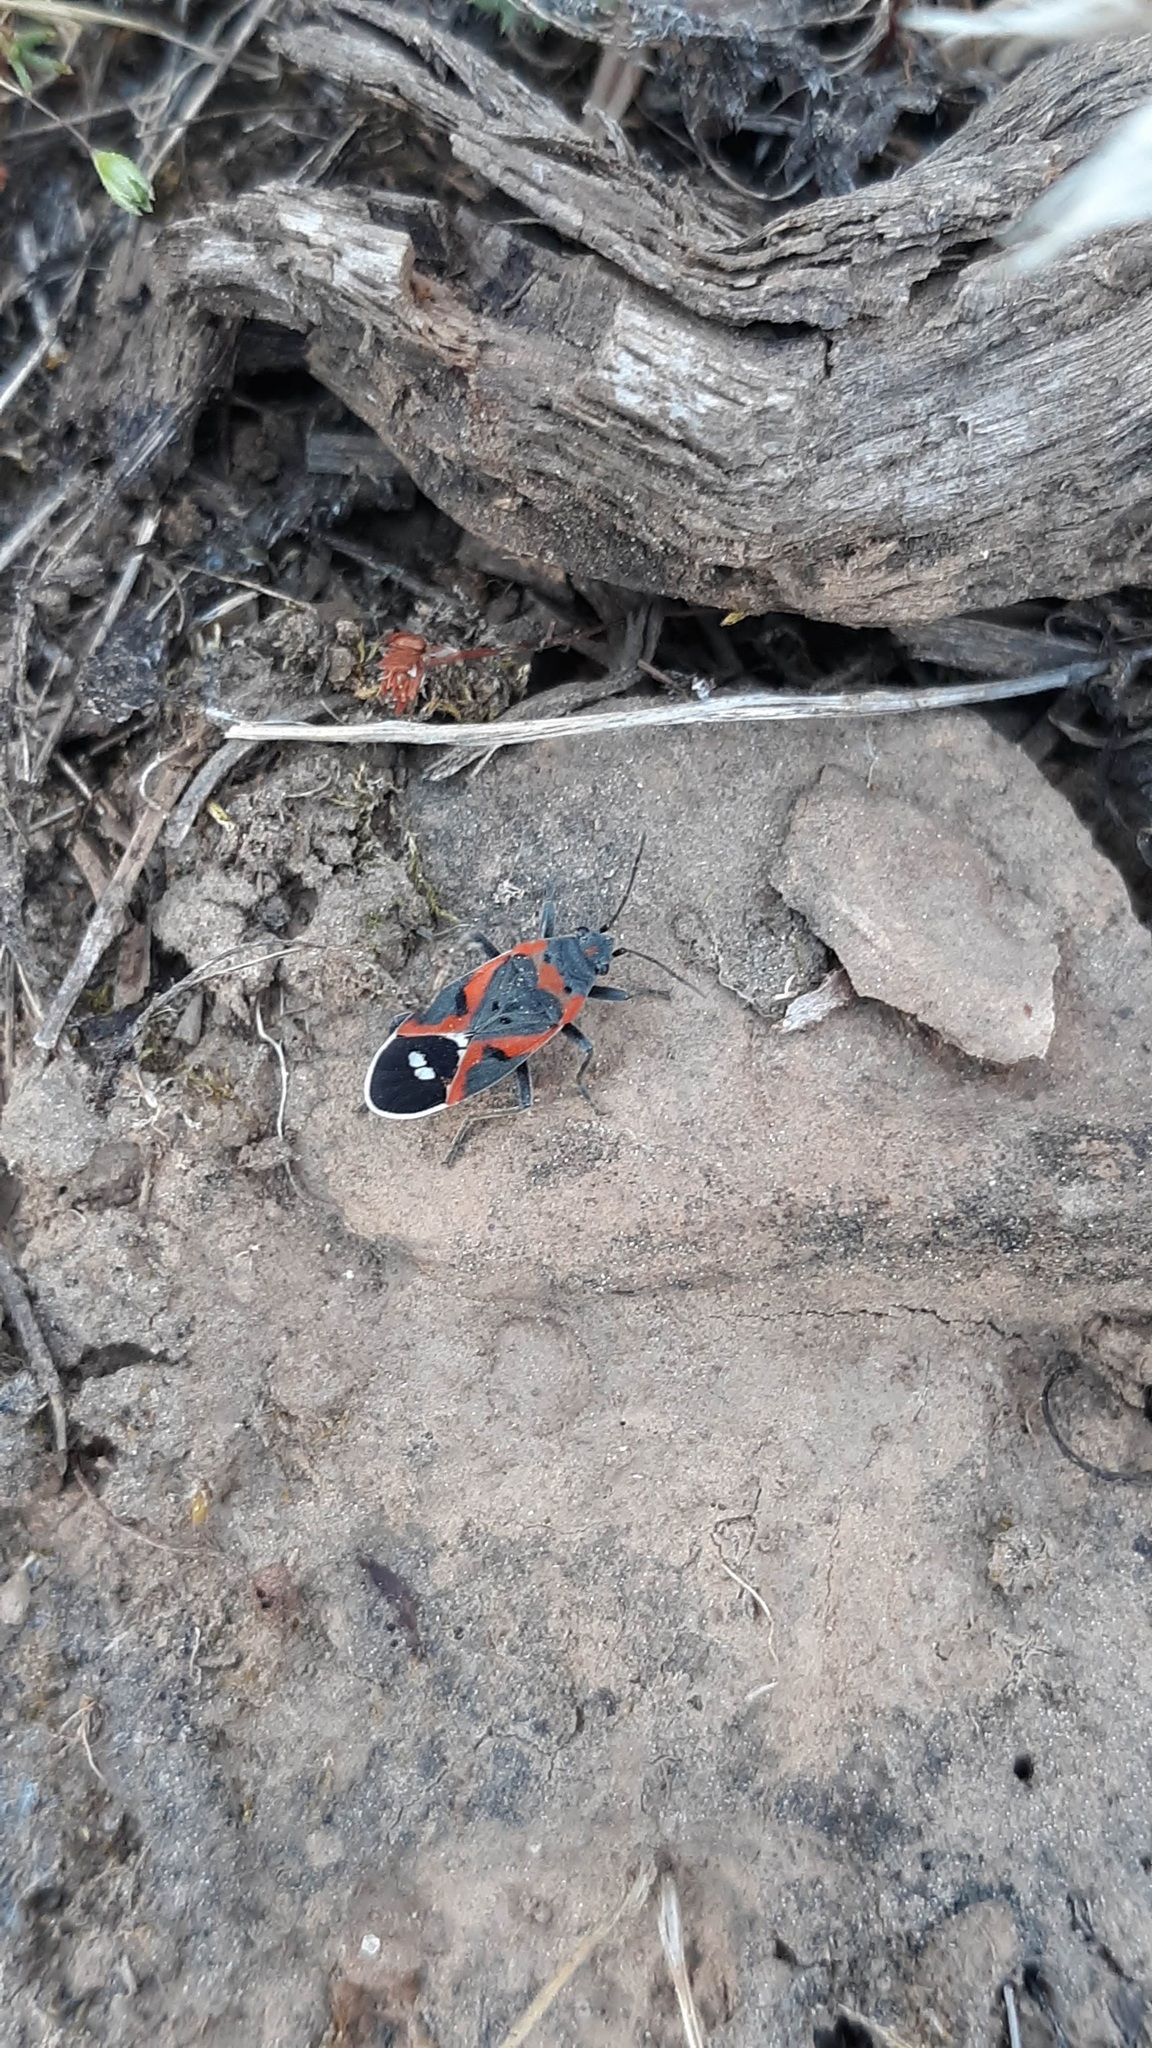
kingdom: Animalia
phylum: Arthropoda
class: Insecta
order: Hemiptera
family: Lygaeidae
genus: Lygaeus
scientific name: Lygaeus kalmii
